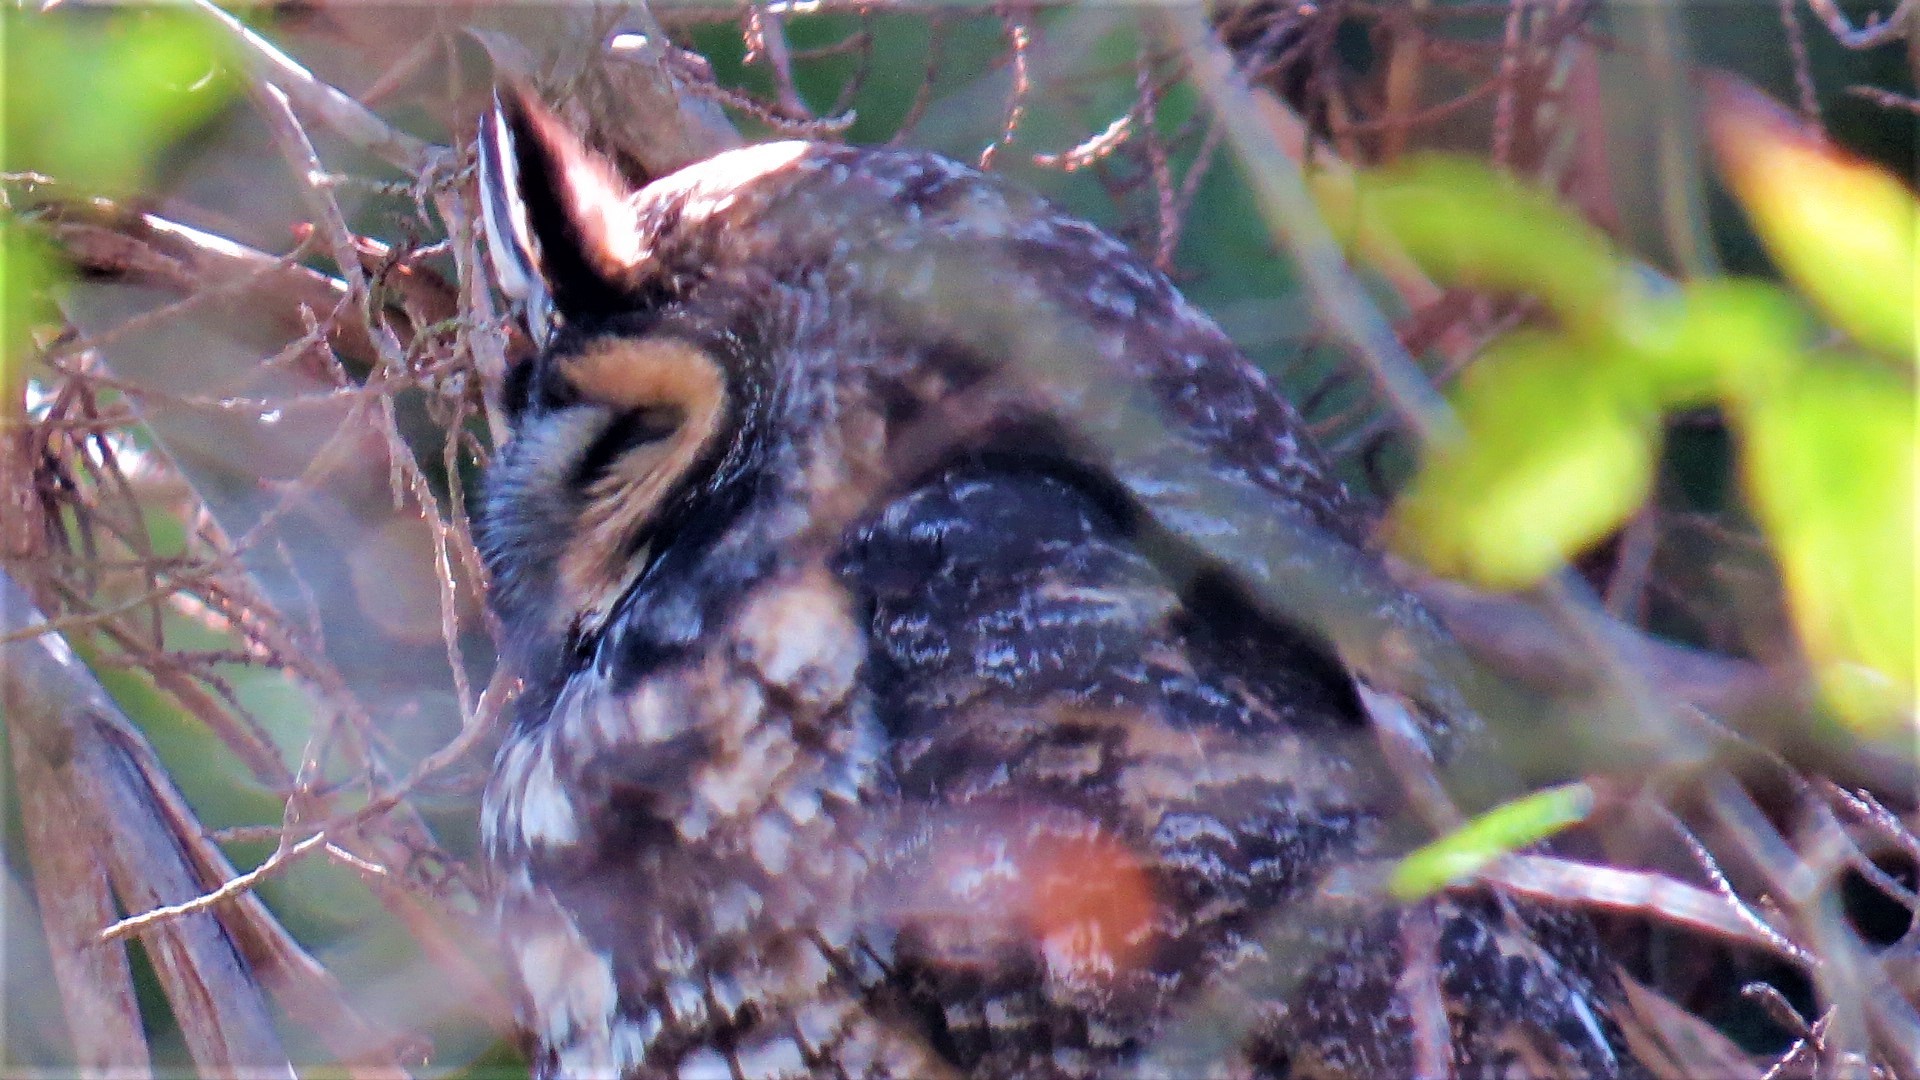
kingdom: Animalia
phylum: Chordata
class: Aves
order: Strigiformes
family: Strigidae
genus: Asio
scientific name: Asio otus
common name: Long-eared owl
